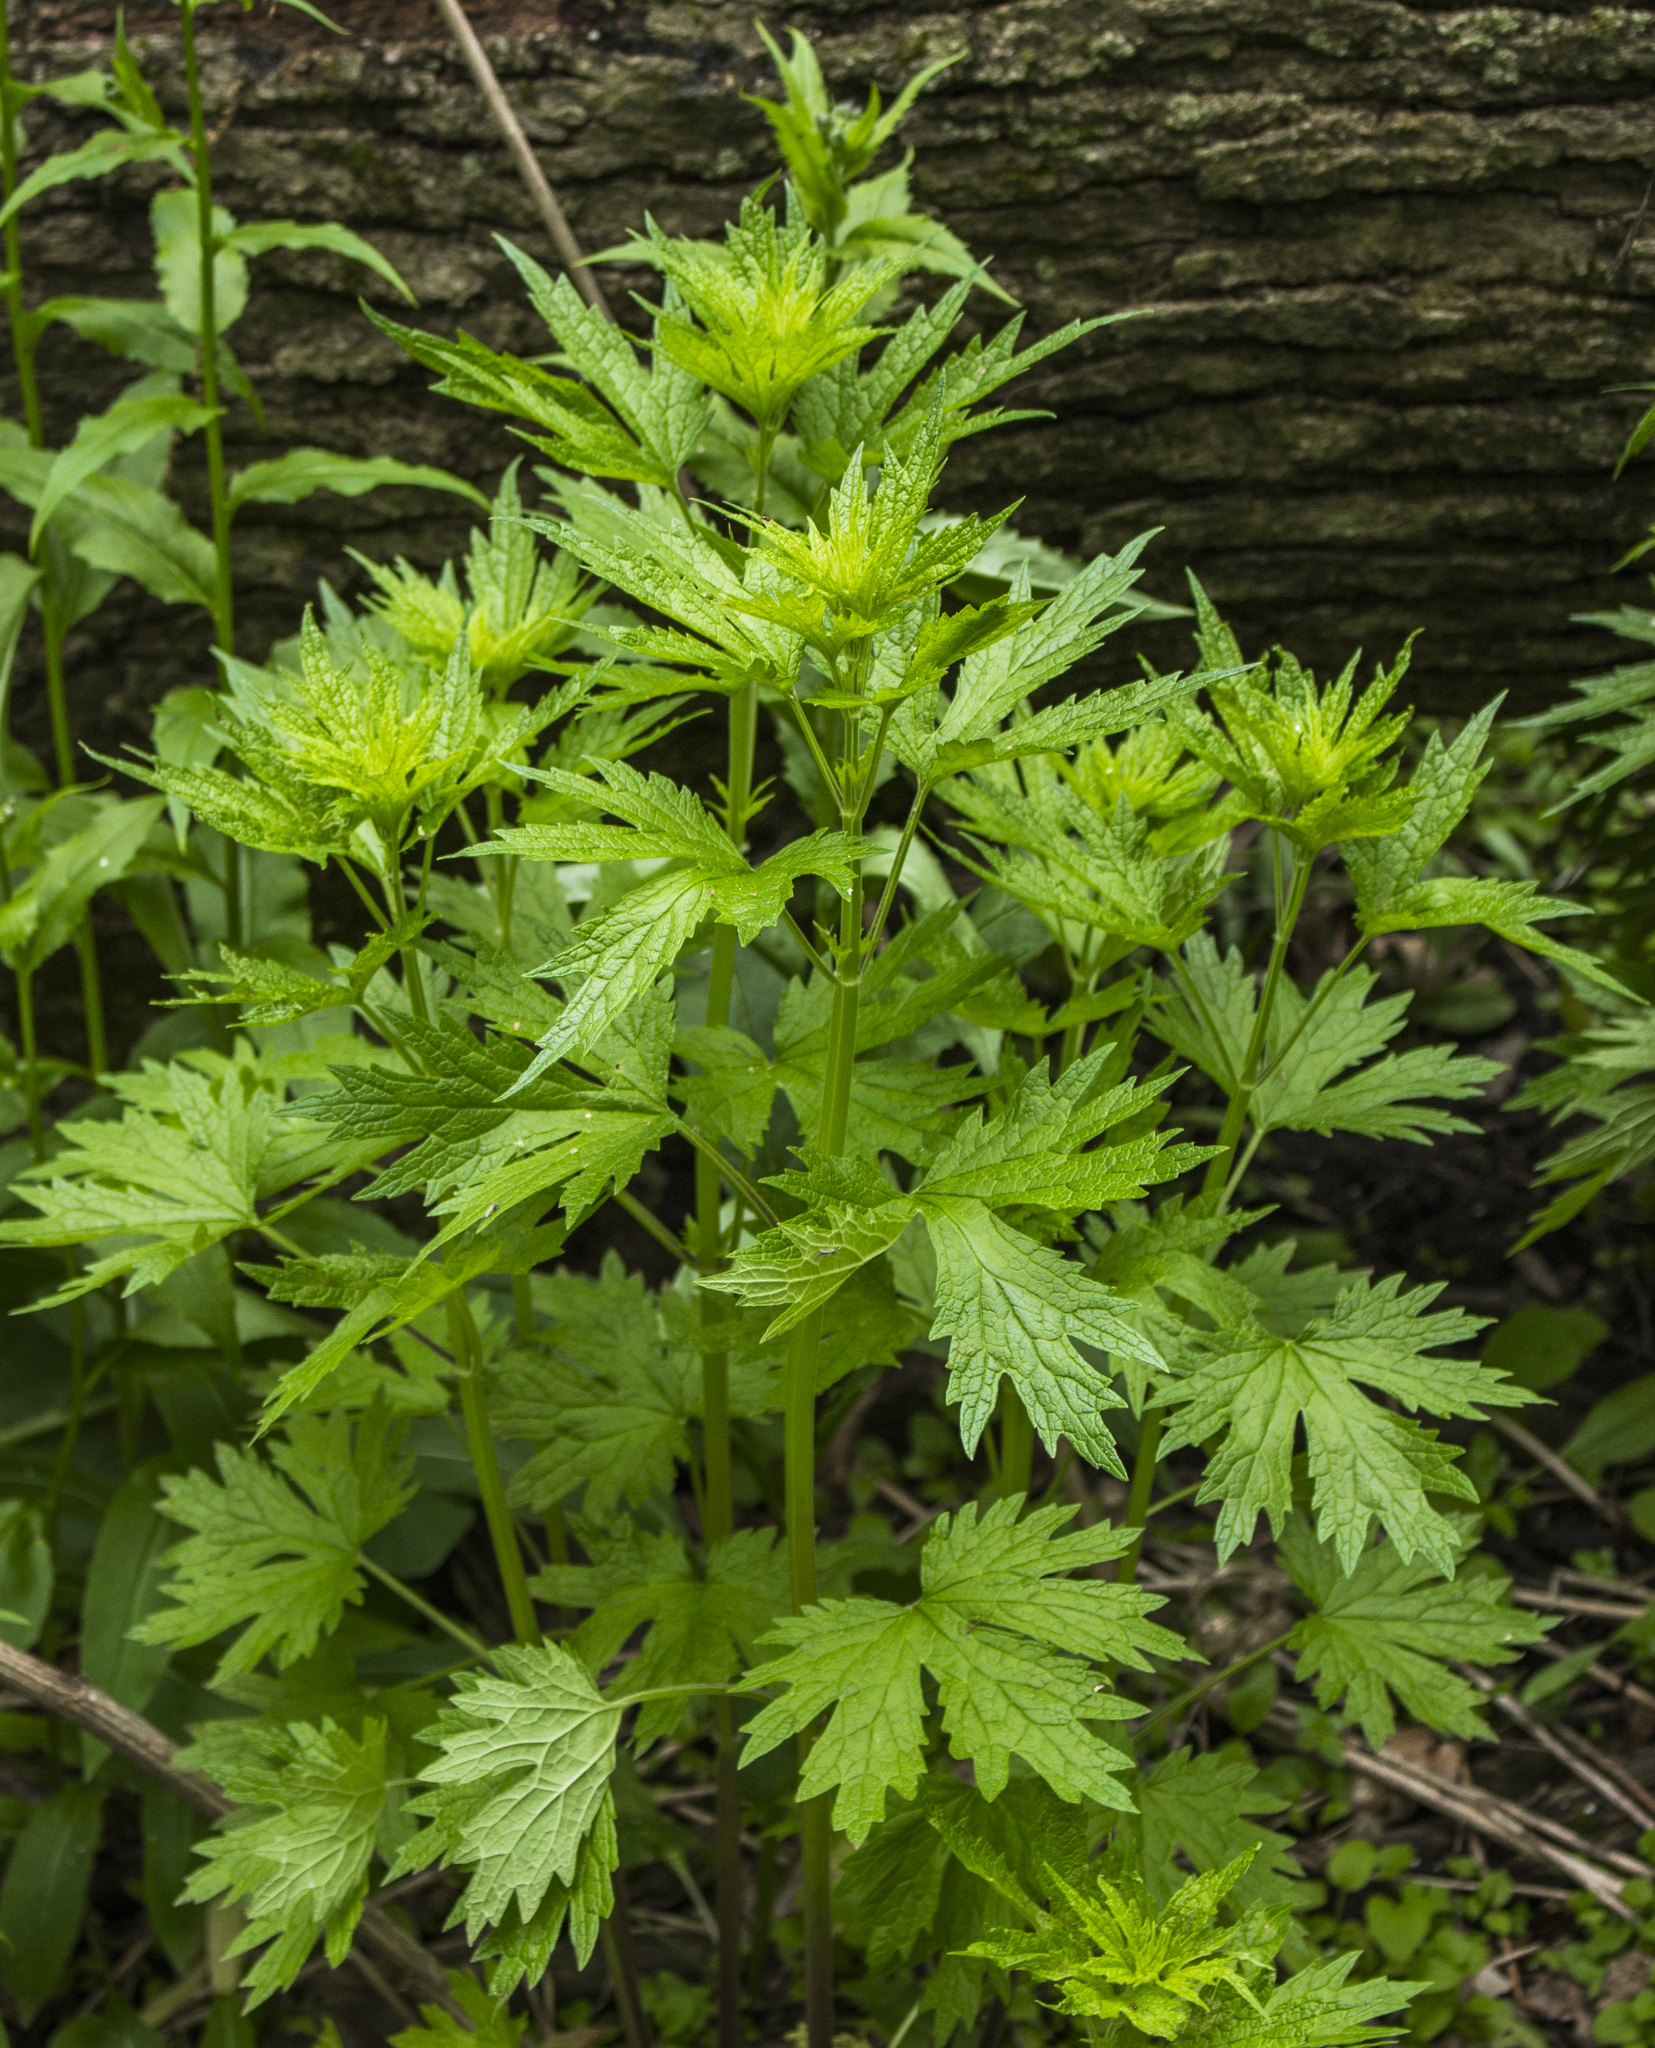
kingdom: Plantae
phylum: Tracheophyta
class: Magnoliopsida
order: Lamiales
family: Lamiaceae
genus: Leonurus
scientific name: Leonurus cardiaca
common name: Motherwort
